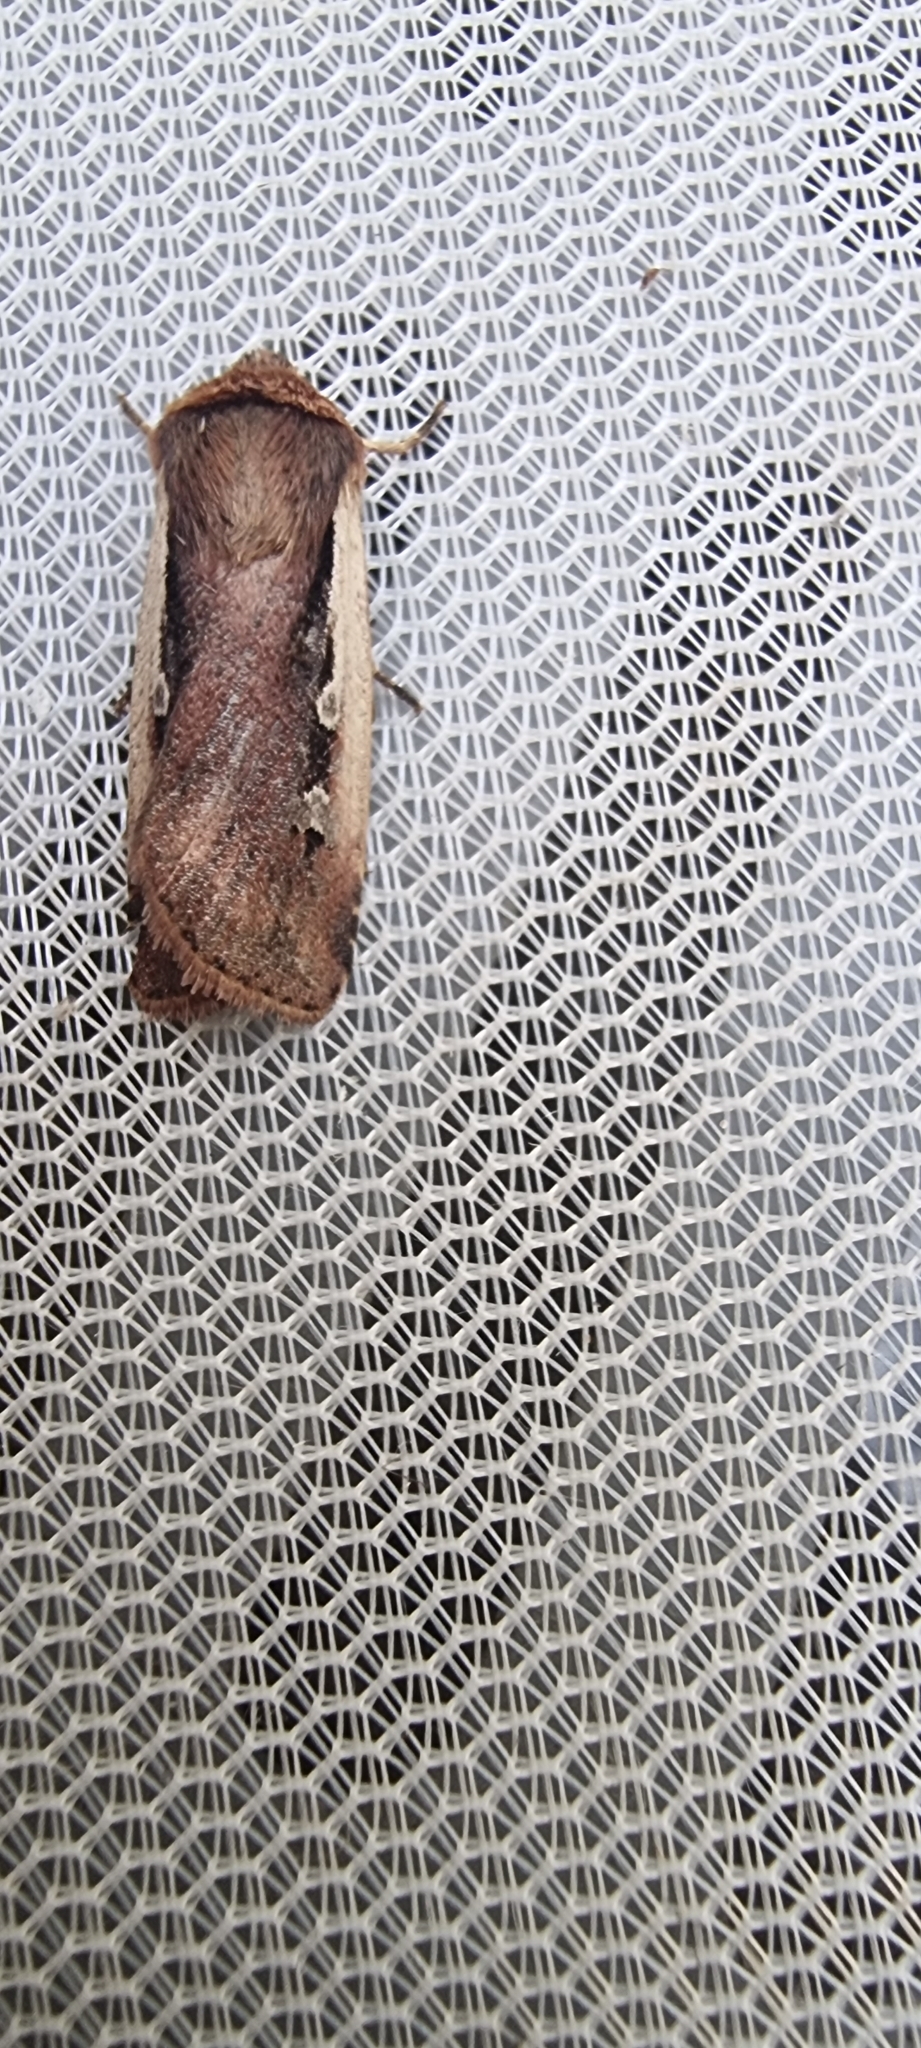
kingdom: Animalia
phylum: Arthropoda
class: Insecta
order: Lepidoptera
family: Noctuidae
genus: Ochropleura
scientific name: Ochropleura plecta
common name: Flame shoulder
